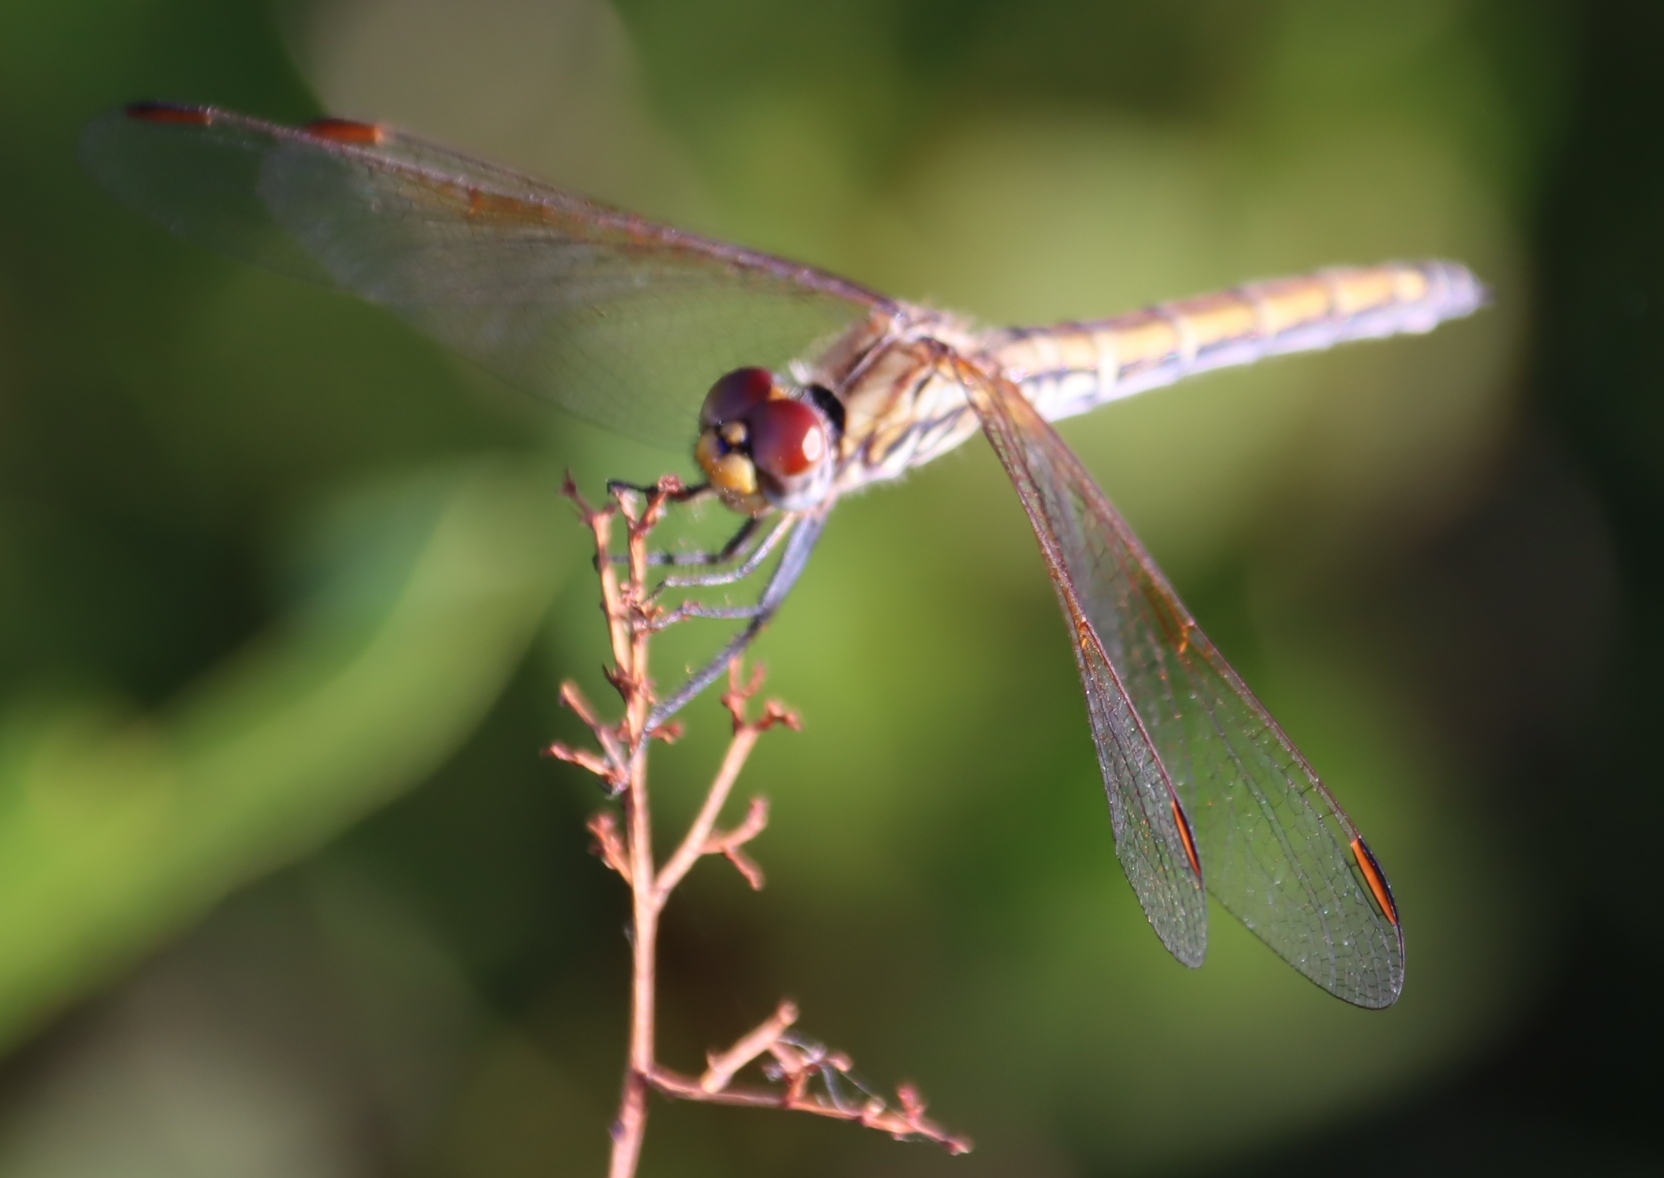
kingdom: Animalia
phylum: Arthropoda
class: Insecta
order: Odonata
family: Libellulidae
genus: Trithemis
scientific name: Trithemis arteriosa
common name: Red-veined dropwing
